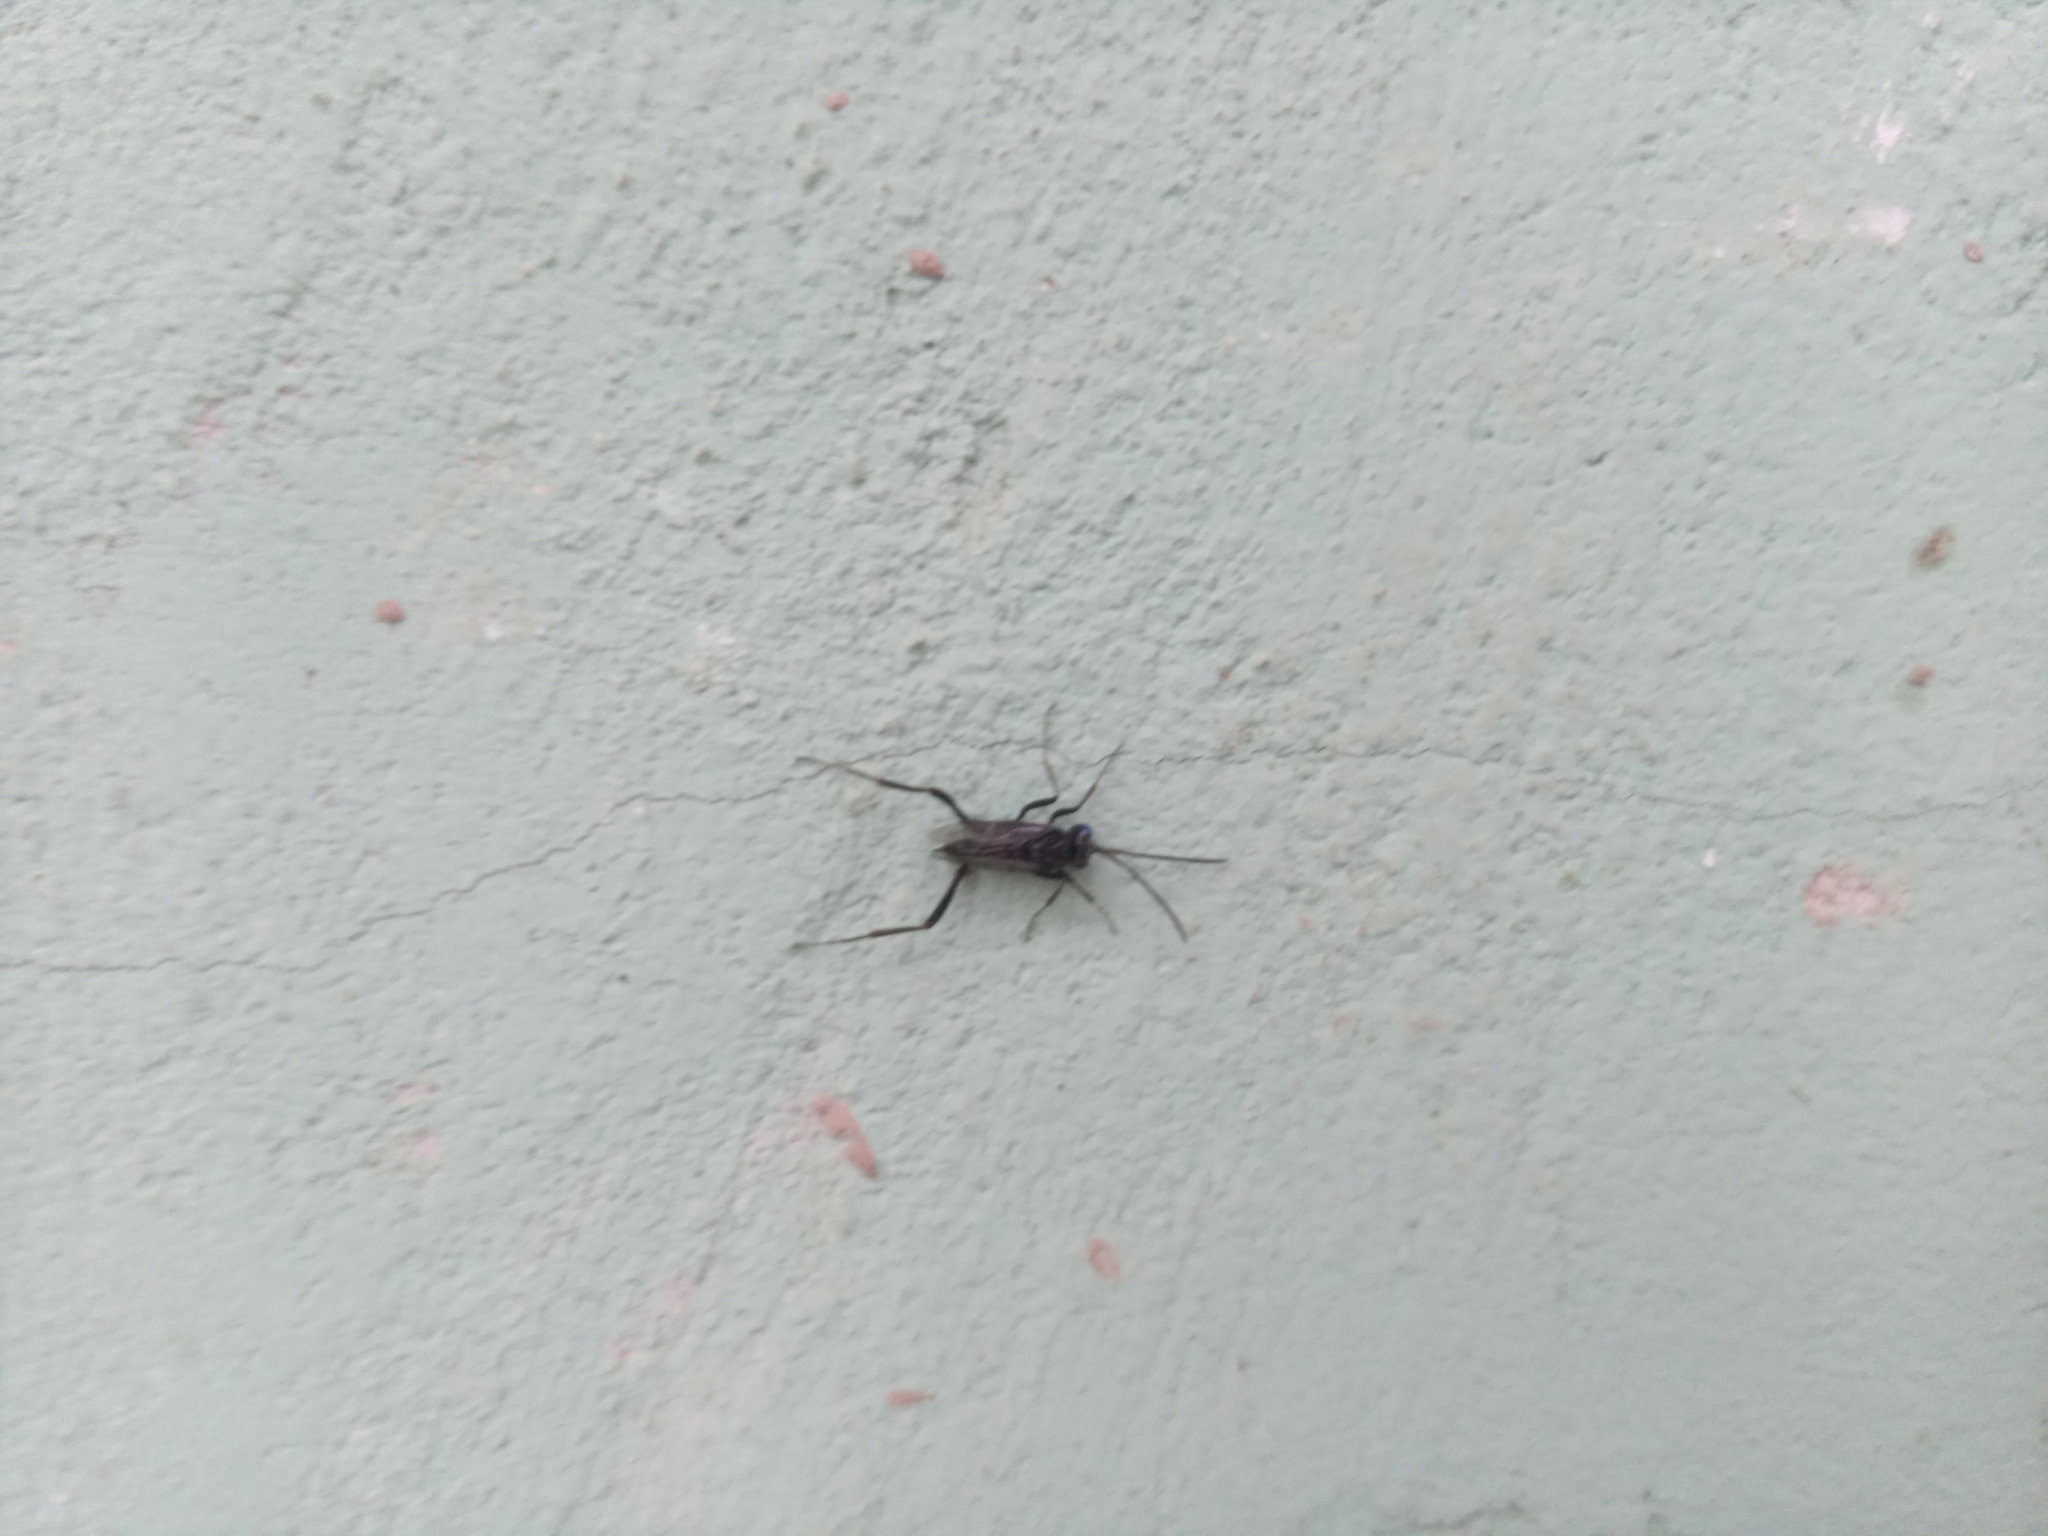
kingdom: Animalia
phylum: Arthropoda
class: Insecta
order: Hymenoptera
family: Evaniidae
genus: Evania
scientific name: Evania appendigaster
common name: Ensign wasp
